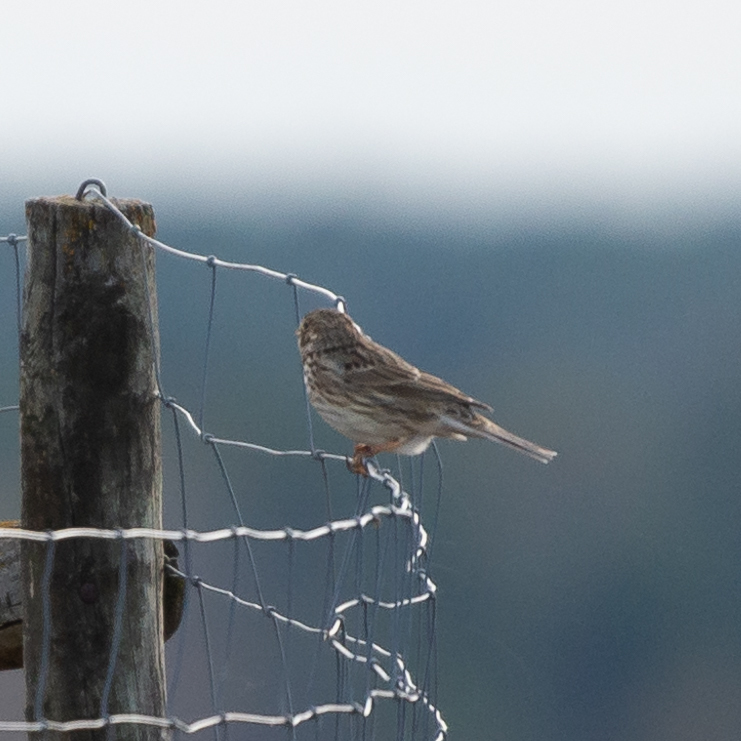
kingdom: Animalia
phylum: Chordata
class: Aves
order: Passeriformes
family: Emberizidae
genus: Emberiza
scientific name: Emberiza calandra
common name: Corn bunting
